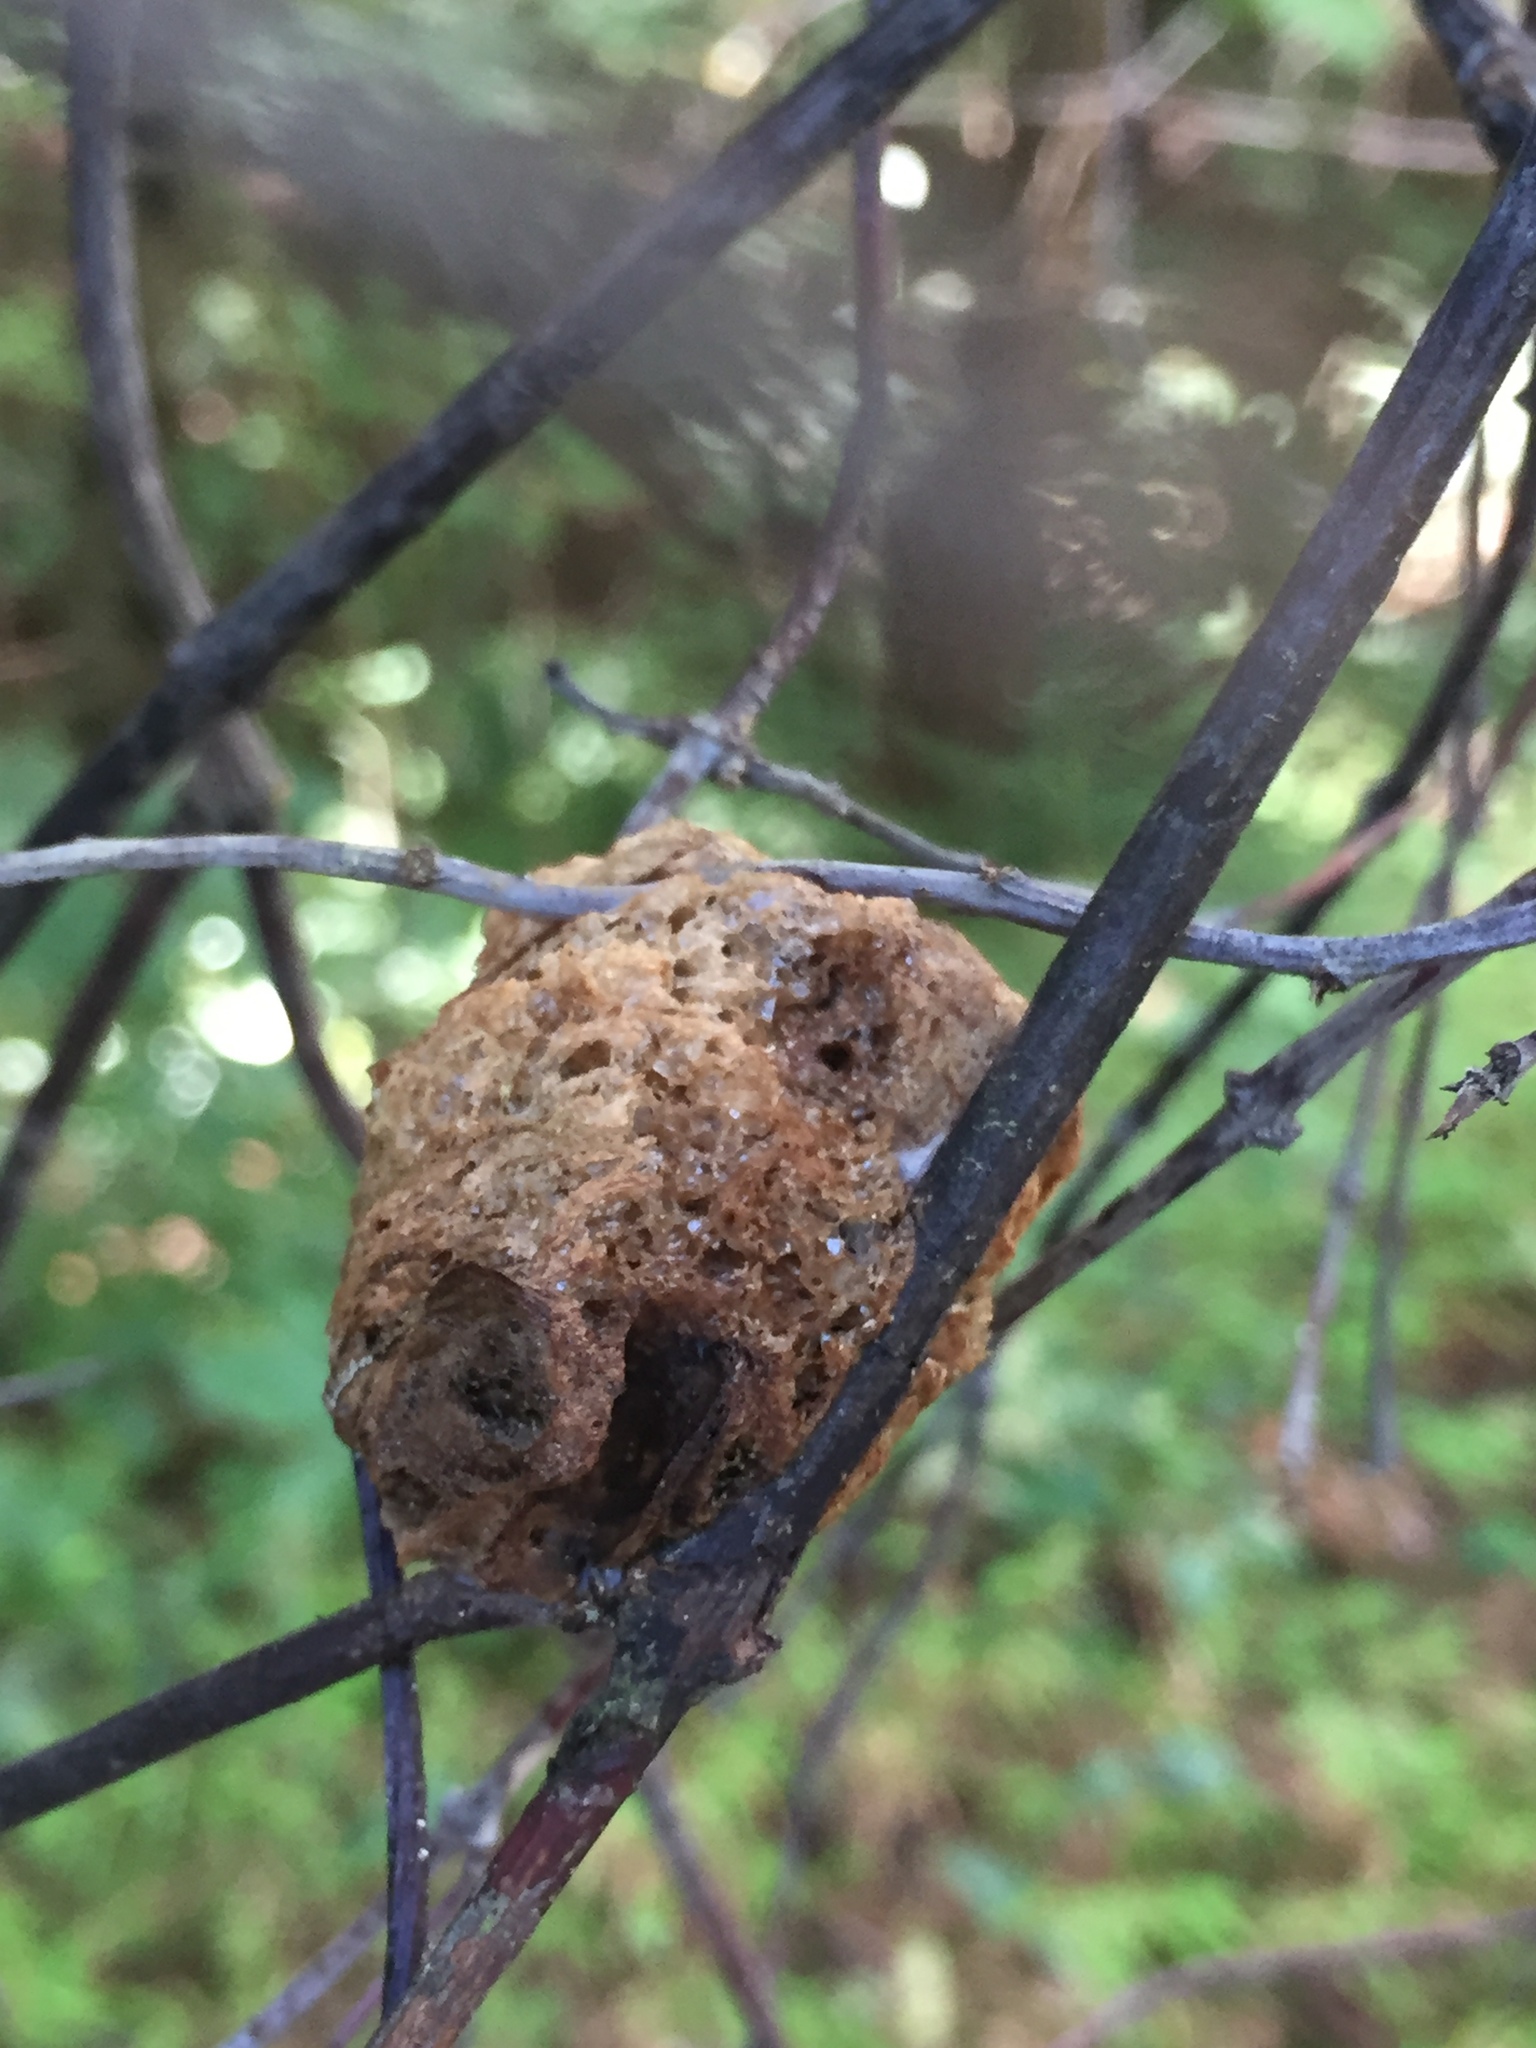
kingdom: Animalia
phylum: Arthropoda
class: Insecta
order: Mantodea
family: Mantidae
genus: Tenodera
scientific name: Tenodera sinensis
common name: Chinese mantis
